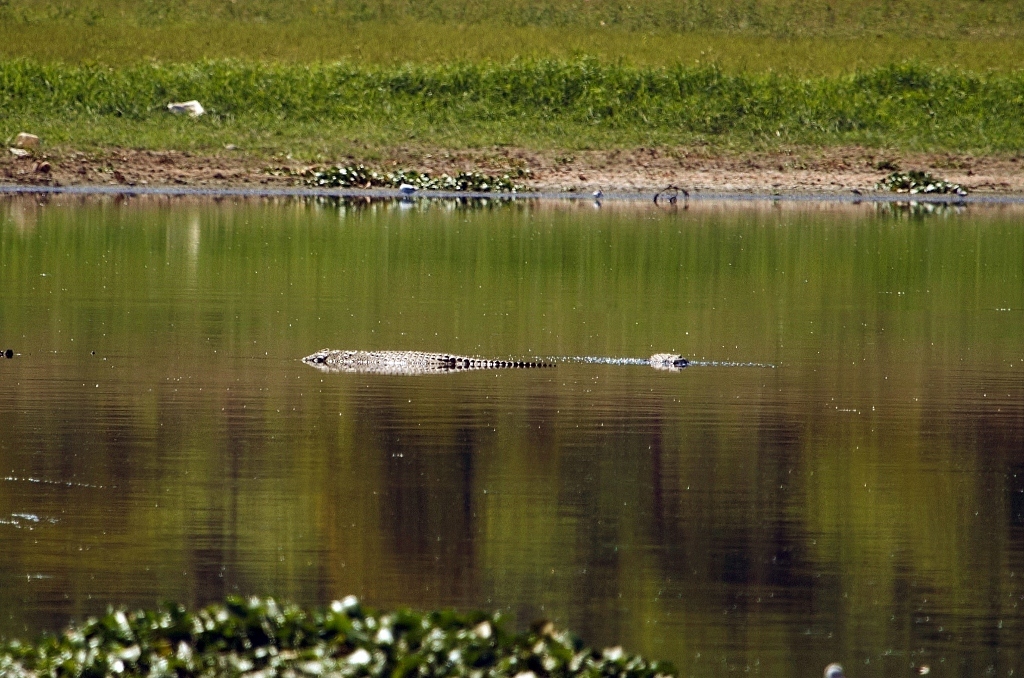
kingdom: Animalia
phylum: Chordata
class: Crocodylia
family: Crocodylidae
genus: Crocodylus
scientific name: Crocodylus niloticus
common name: Nile crocodile
